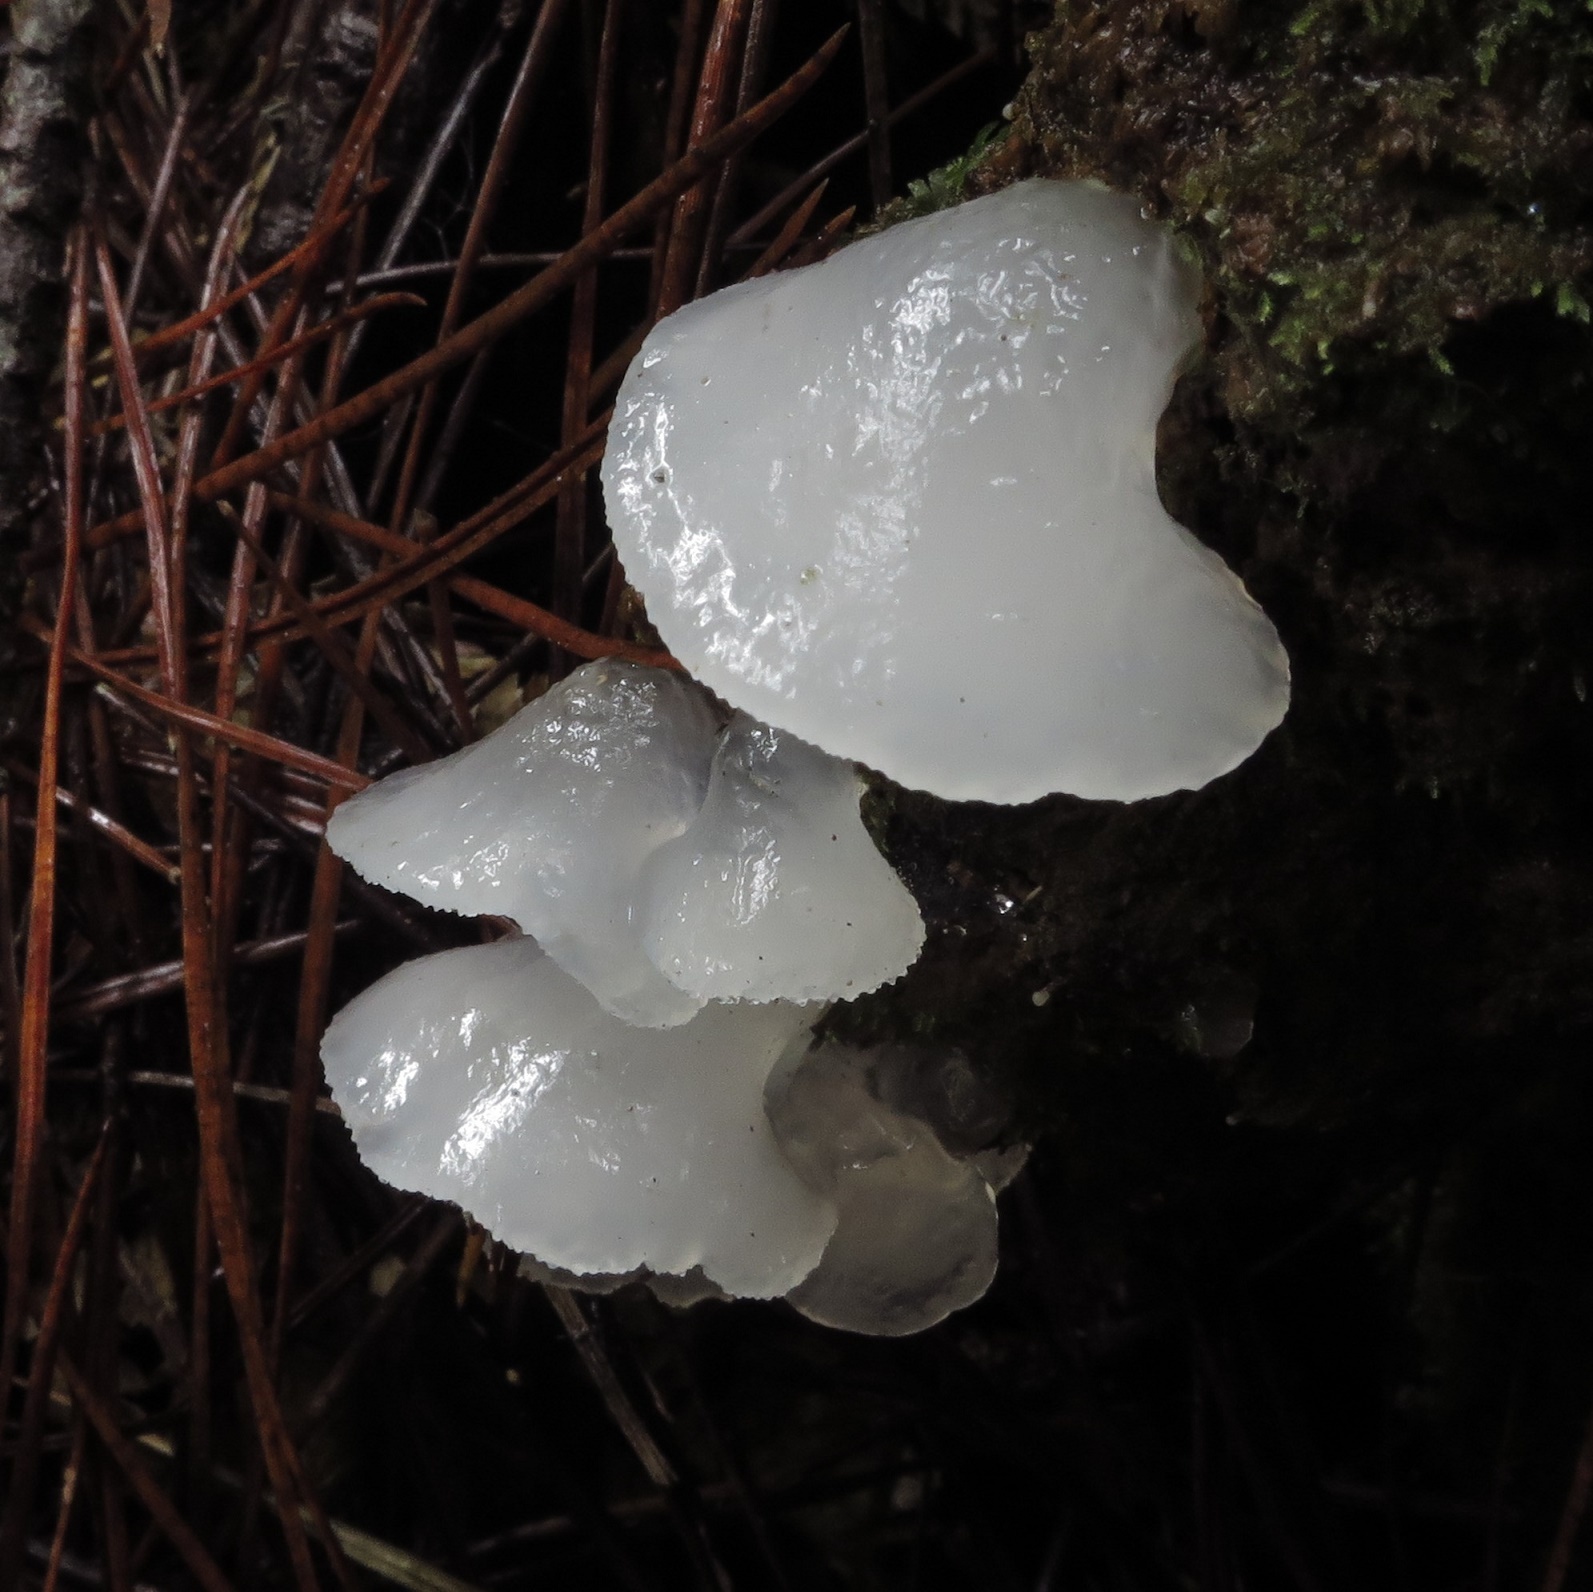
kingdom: Fungi
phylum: Basidiomycota
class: Agaricomycetes
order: Auriculariales
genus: Pseudohydnum
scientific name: Pseudohydnum orbiculare
